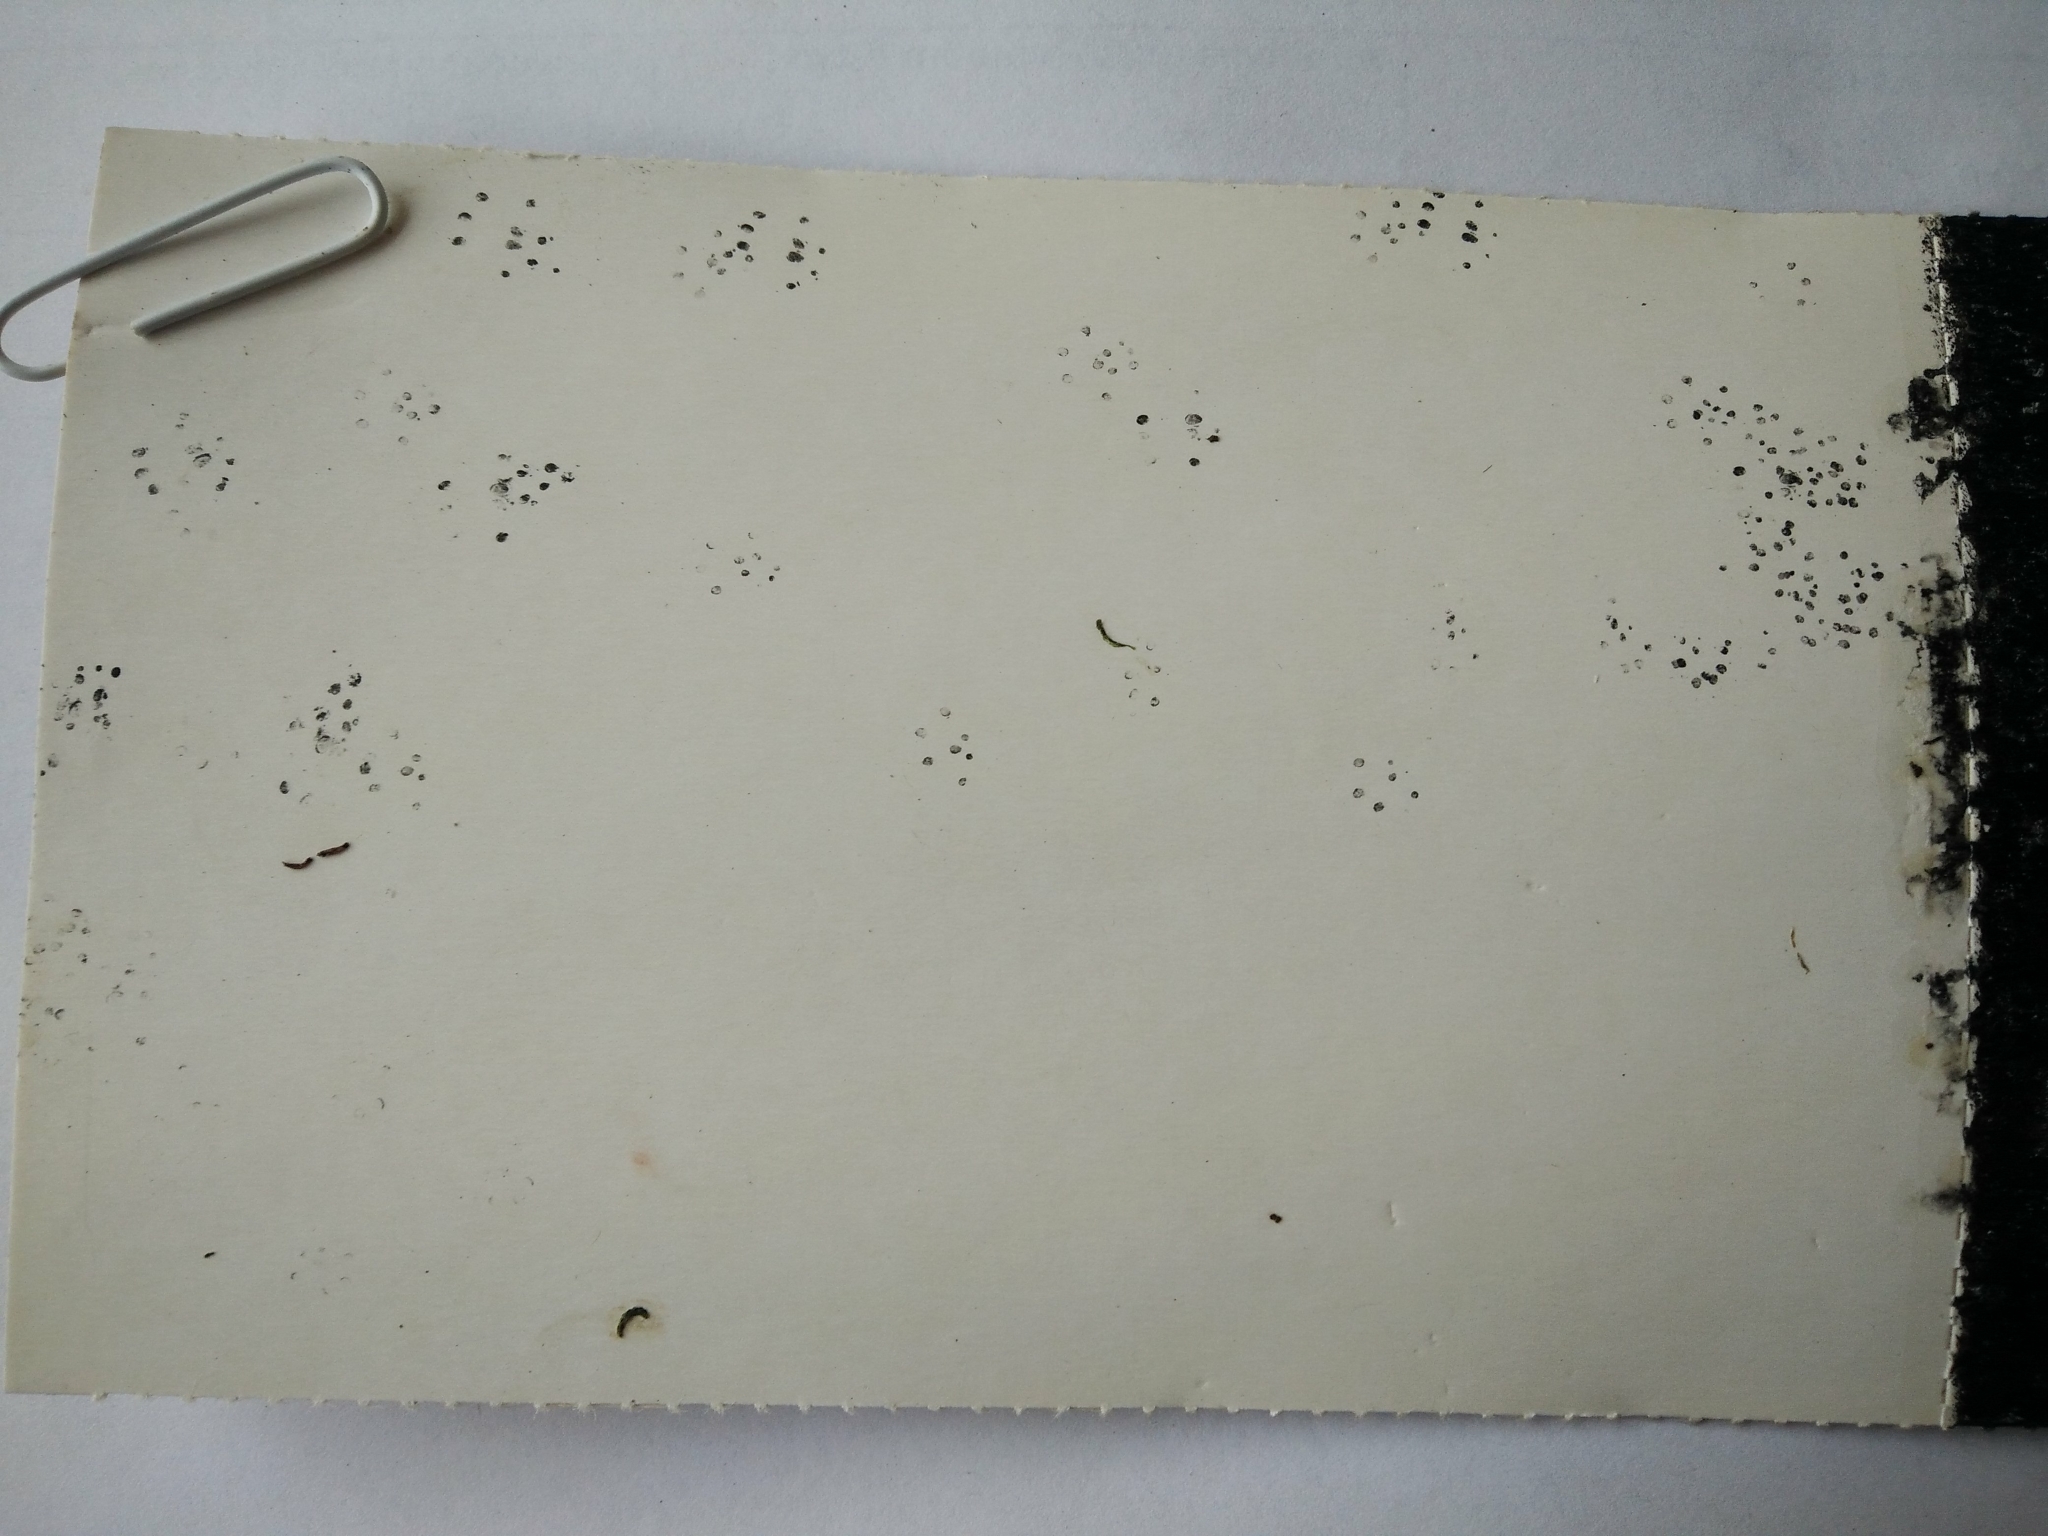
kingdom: Animalia
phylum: Chordata
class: Mammalia
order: Rodentia
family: Muridae
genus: Mus
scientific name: Mus musculus
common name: House mouse
